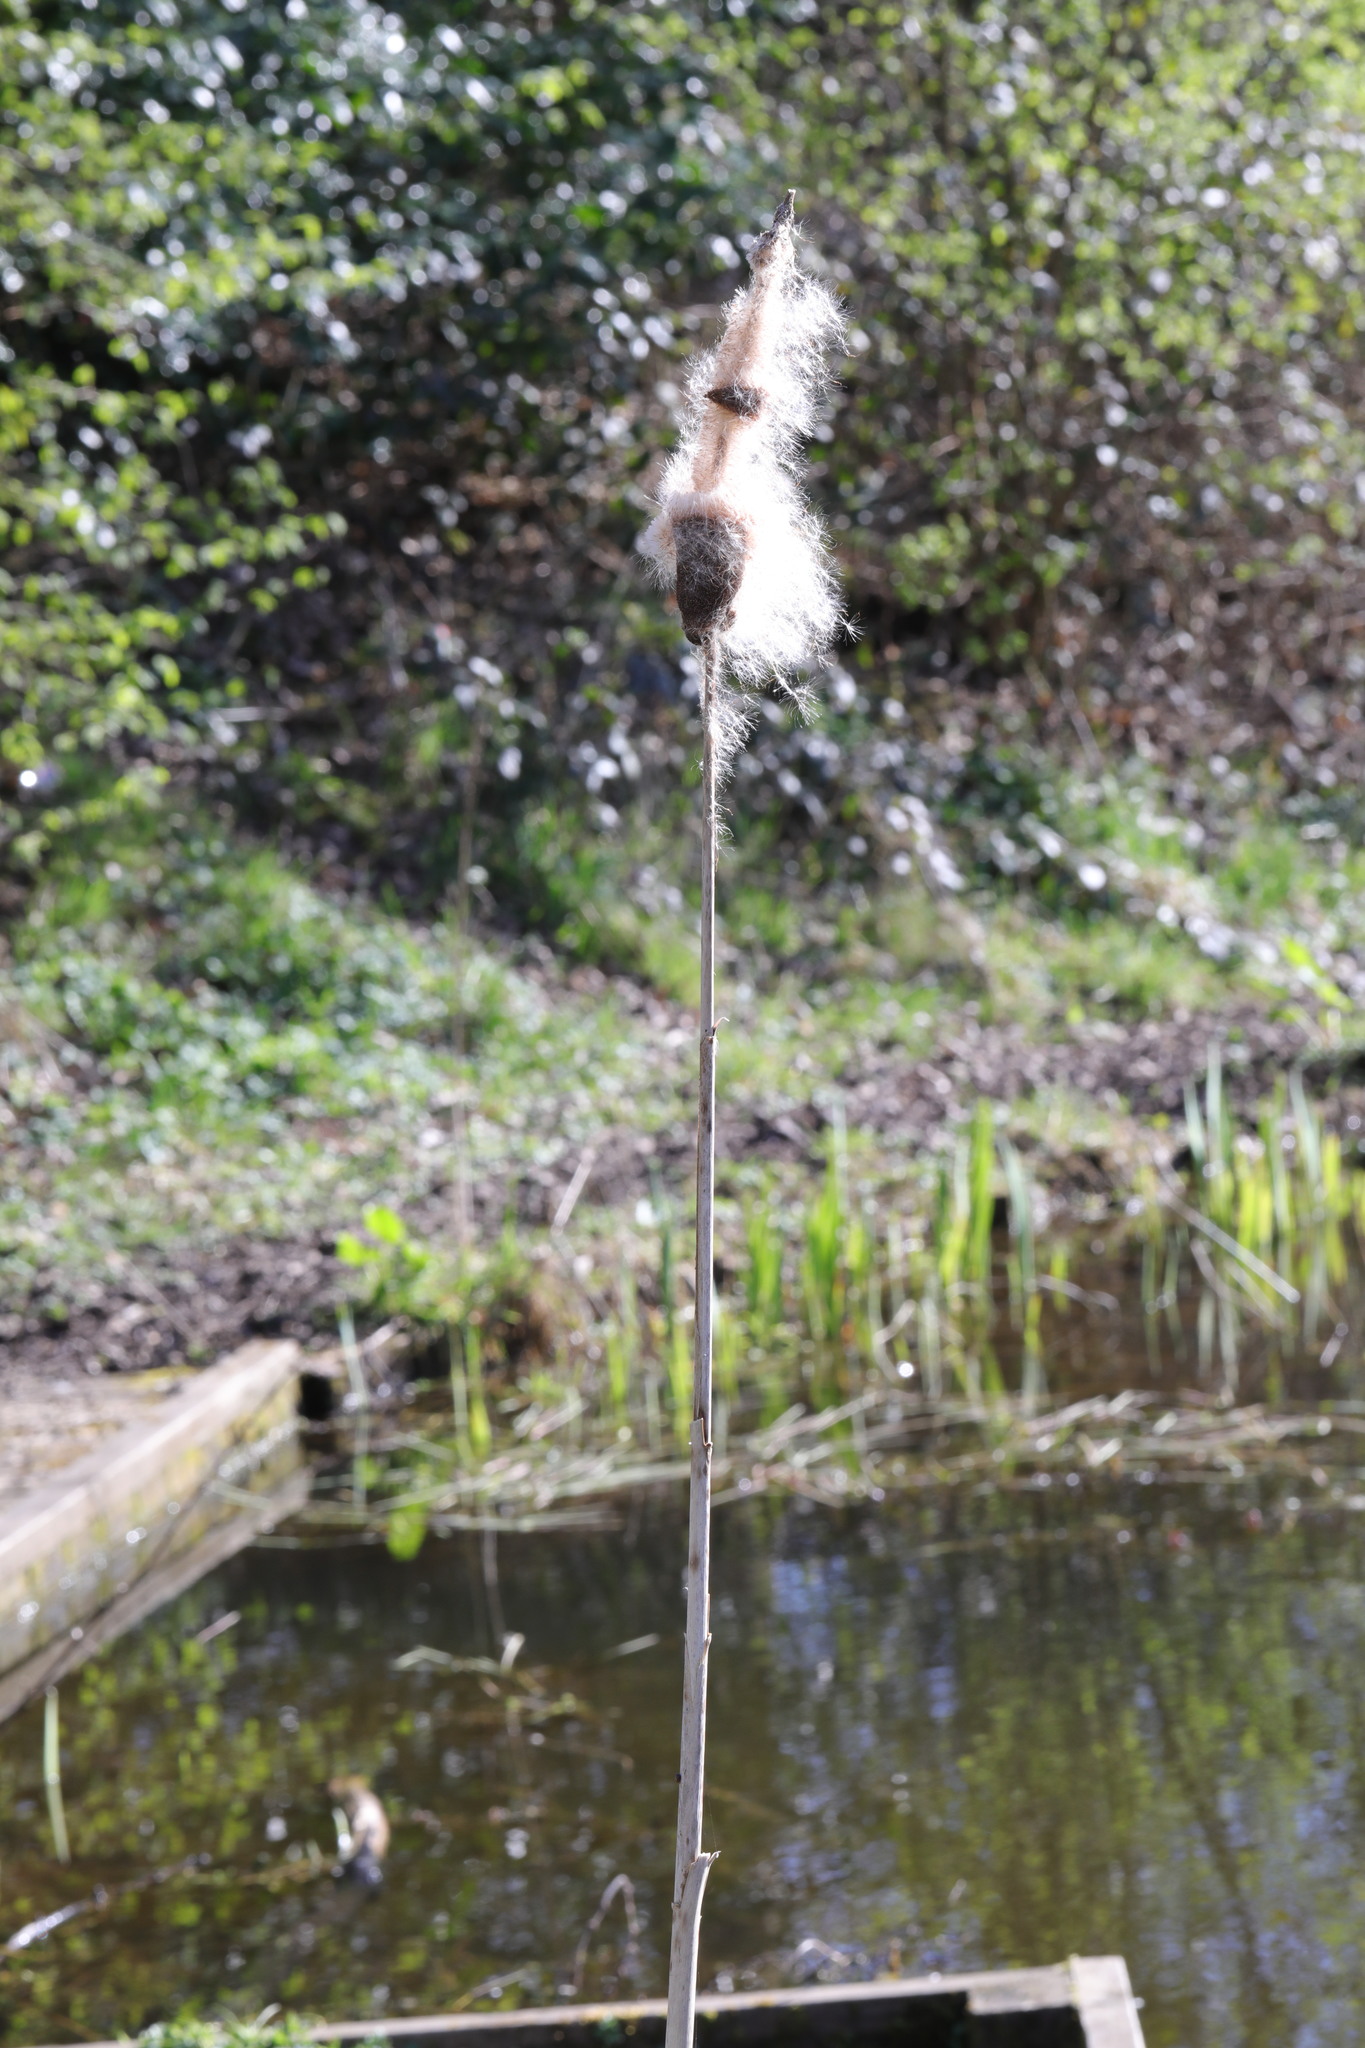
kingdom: Plantae
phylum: Tracheophyta
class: Liliopsida
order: Poales
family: Typhaceae
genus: Typha
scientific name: Typha latifolia
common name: Broadleaf cattail
